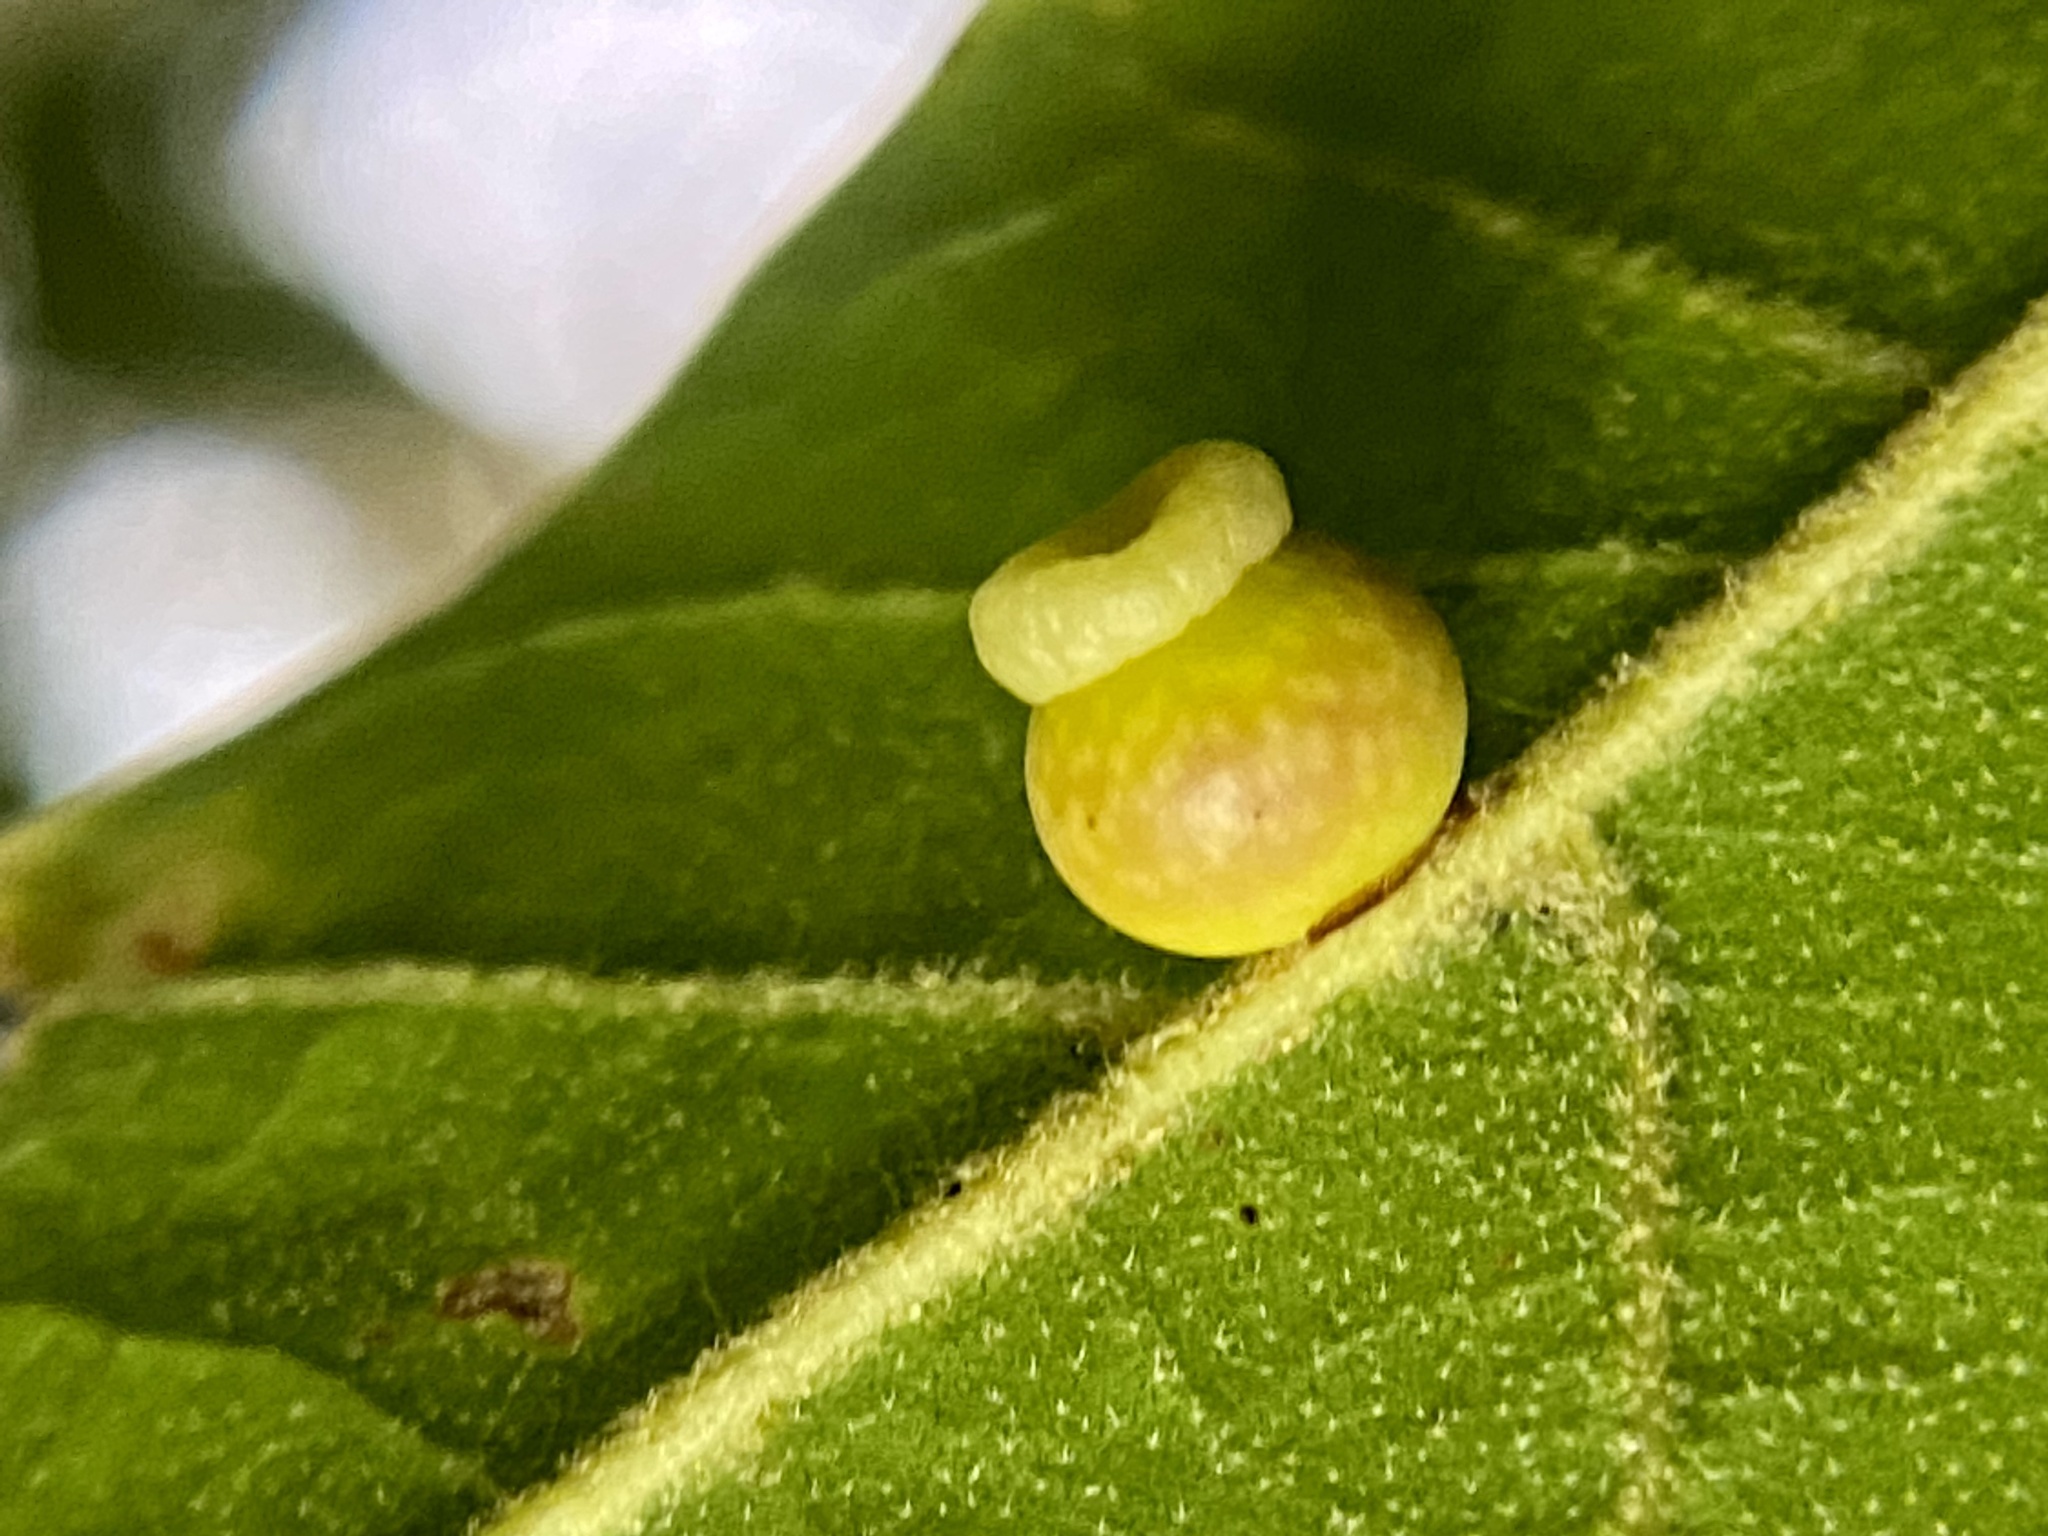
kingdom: Animalia
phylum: Arthropoda
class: Insecta
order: Hymenoptera
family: Cynipidae
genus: Kokkocynips
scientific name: Kokkocynips rileyi
